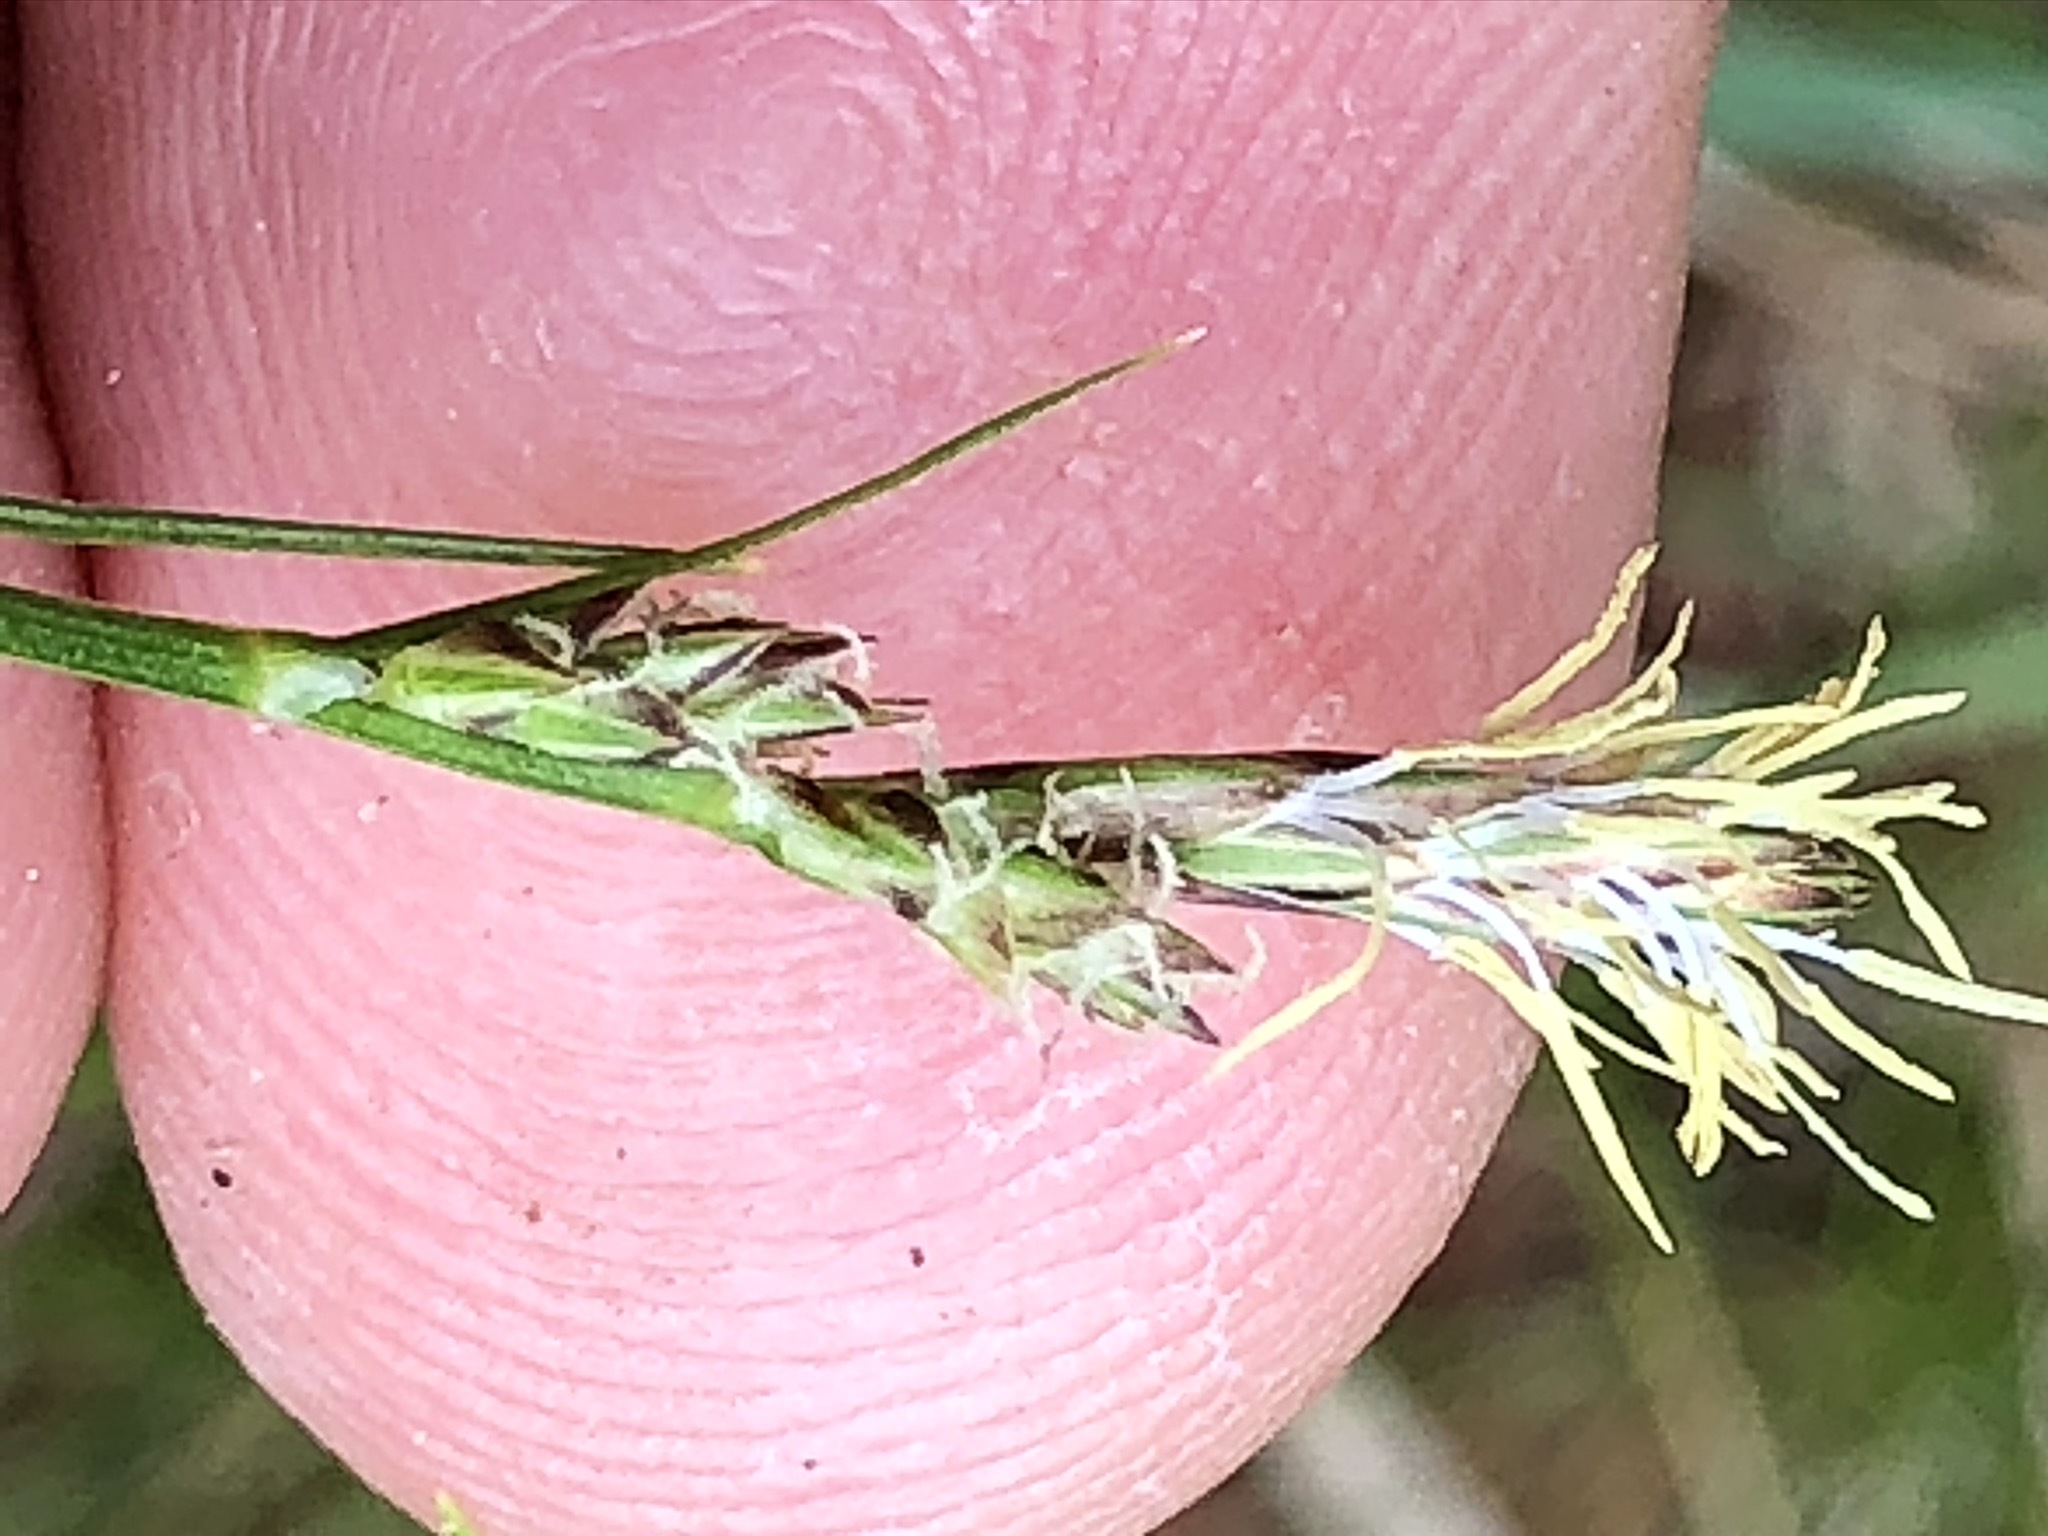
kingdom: Plantae
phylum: Tracheophyta
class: Liliopsida
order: Poales
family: Cyperaceae
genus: Carex
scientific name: Carex caryophyllea
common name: Spring sedge
